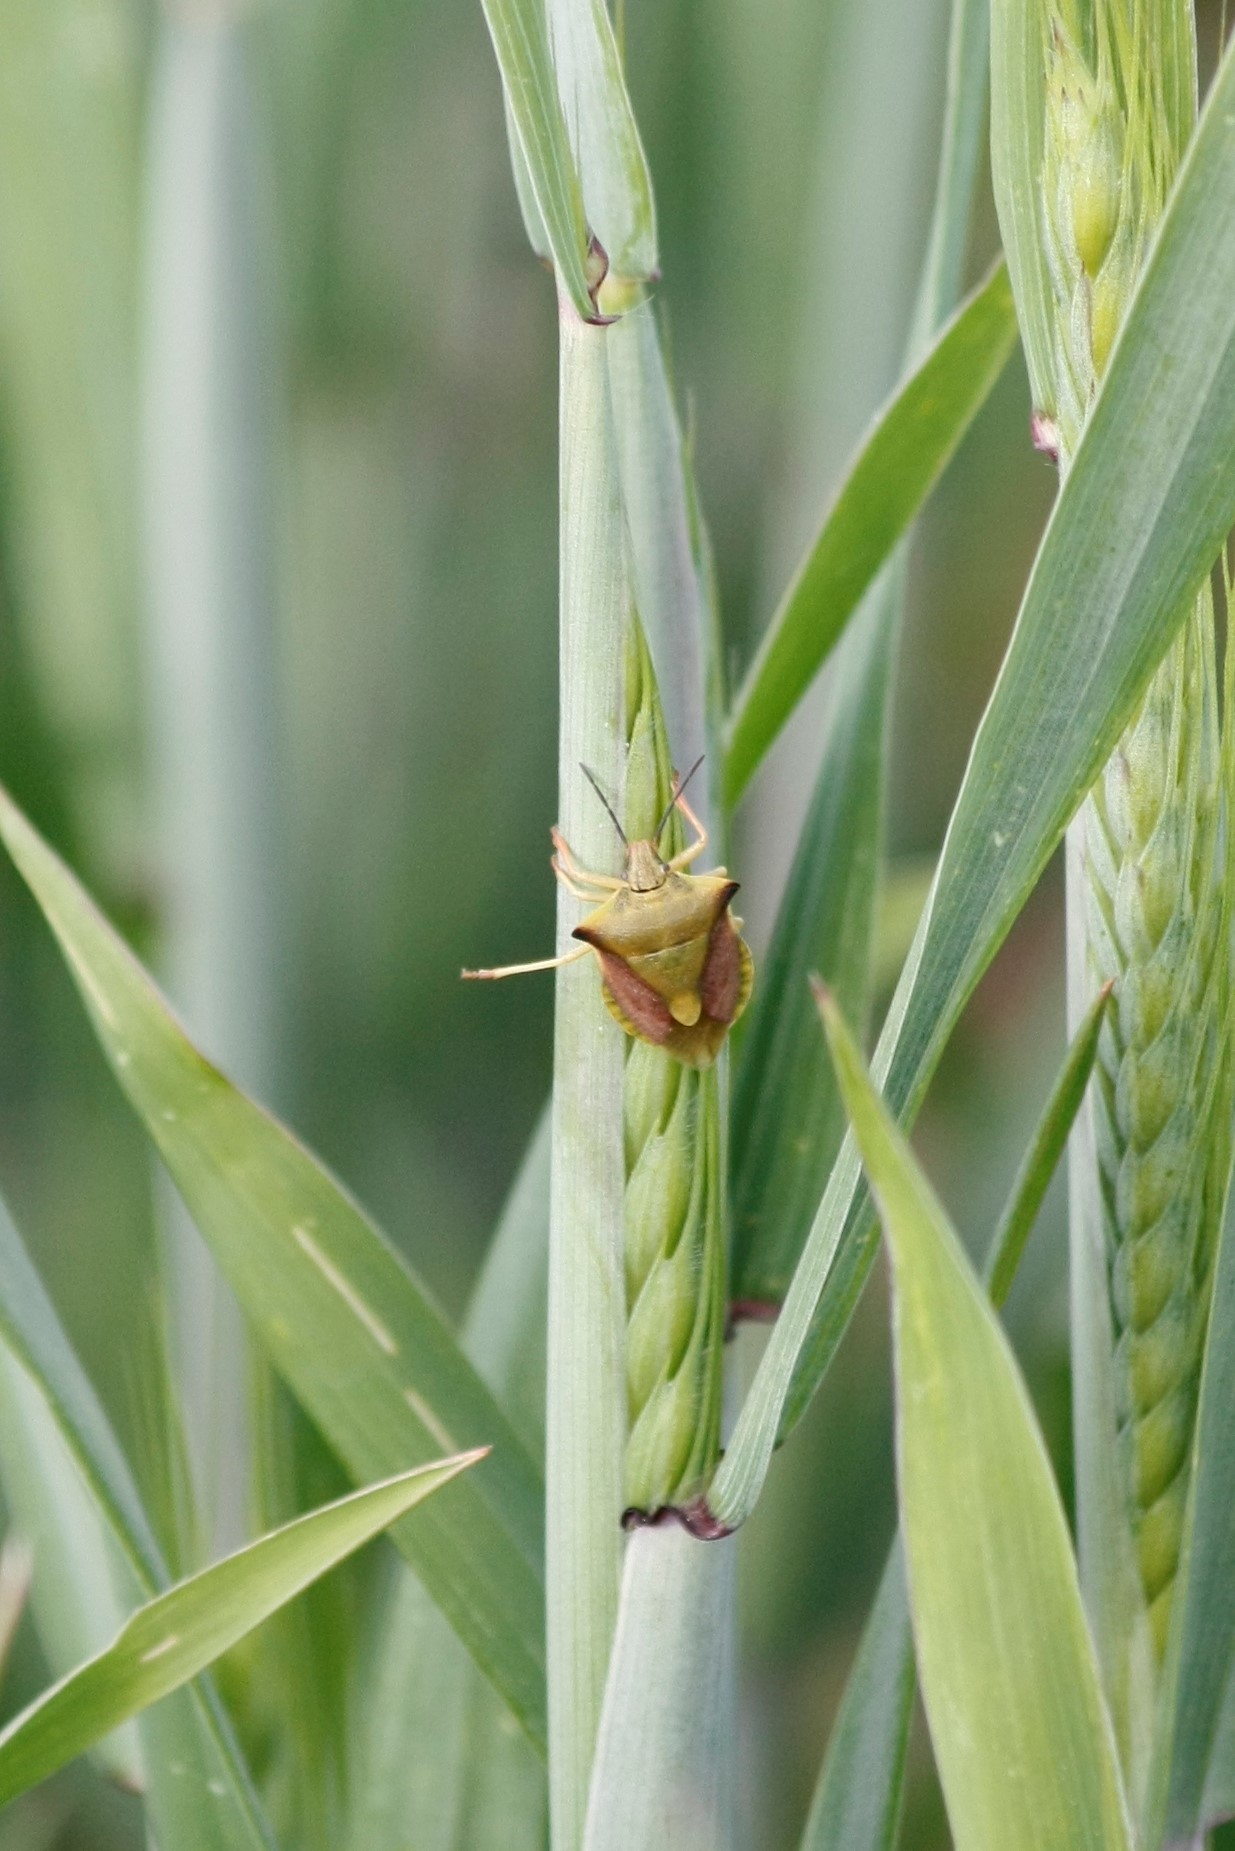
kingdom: Animalia
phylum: Arthropoda
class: Insecta
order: Hemiptera
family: Pentatomidae
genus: Carpocoris
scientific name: Carpocoris fuscispinus
